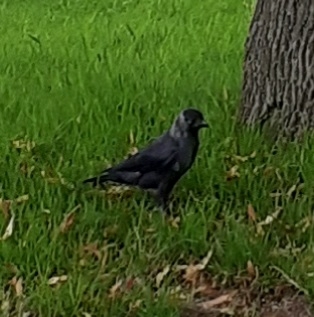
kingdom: Animalia
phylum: Chordata
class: Aves
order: Passeriformes
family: Corvidae
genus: Coloeus
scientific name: Coloeus monedula
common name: Western jackdaw
